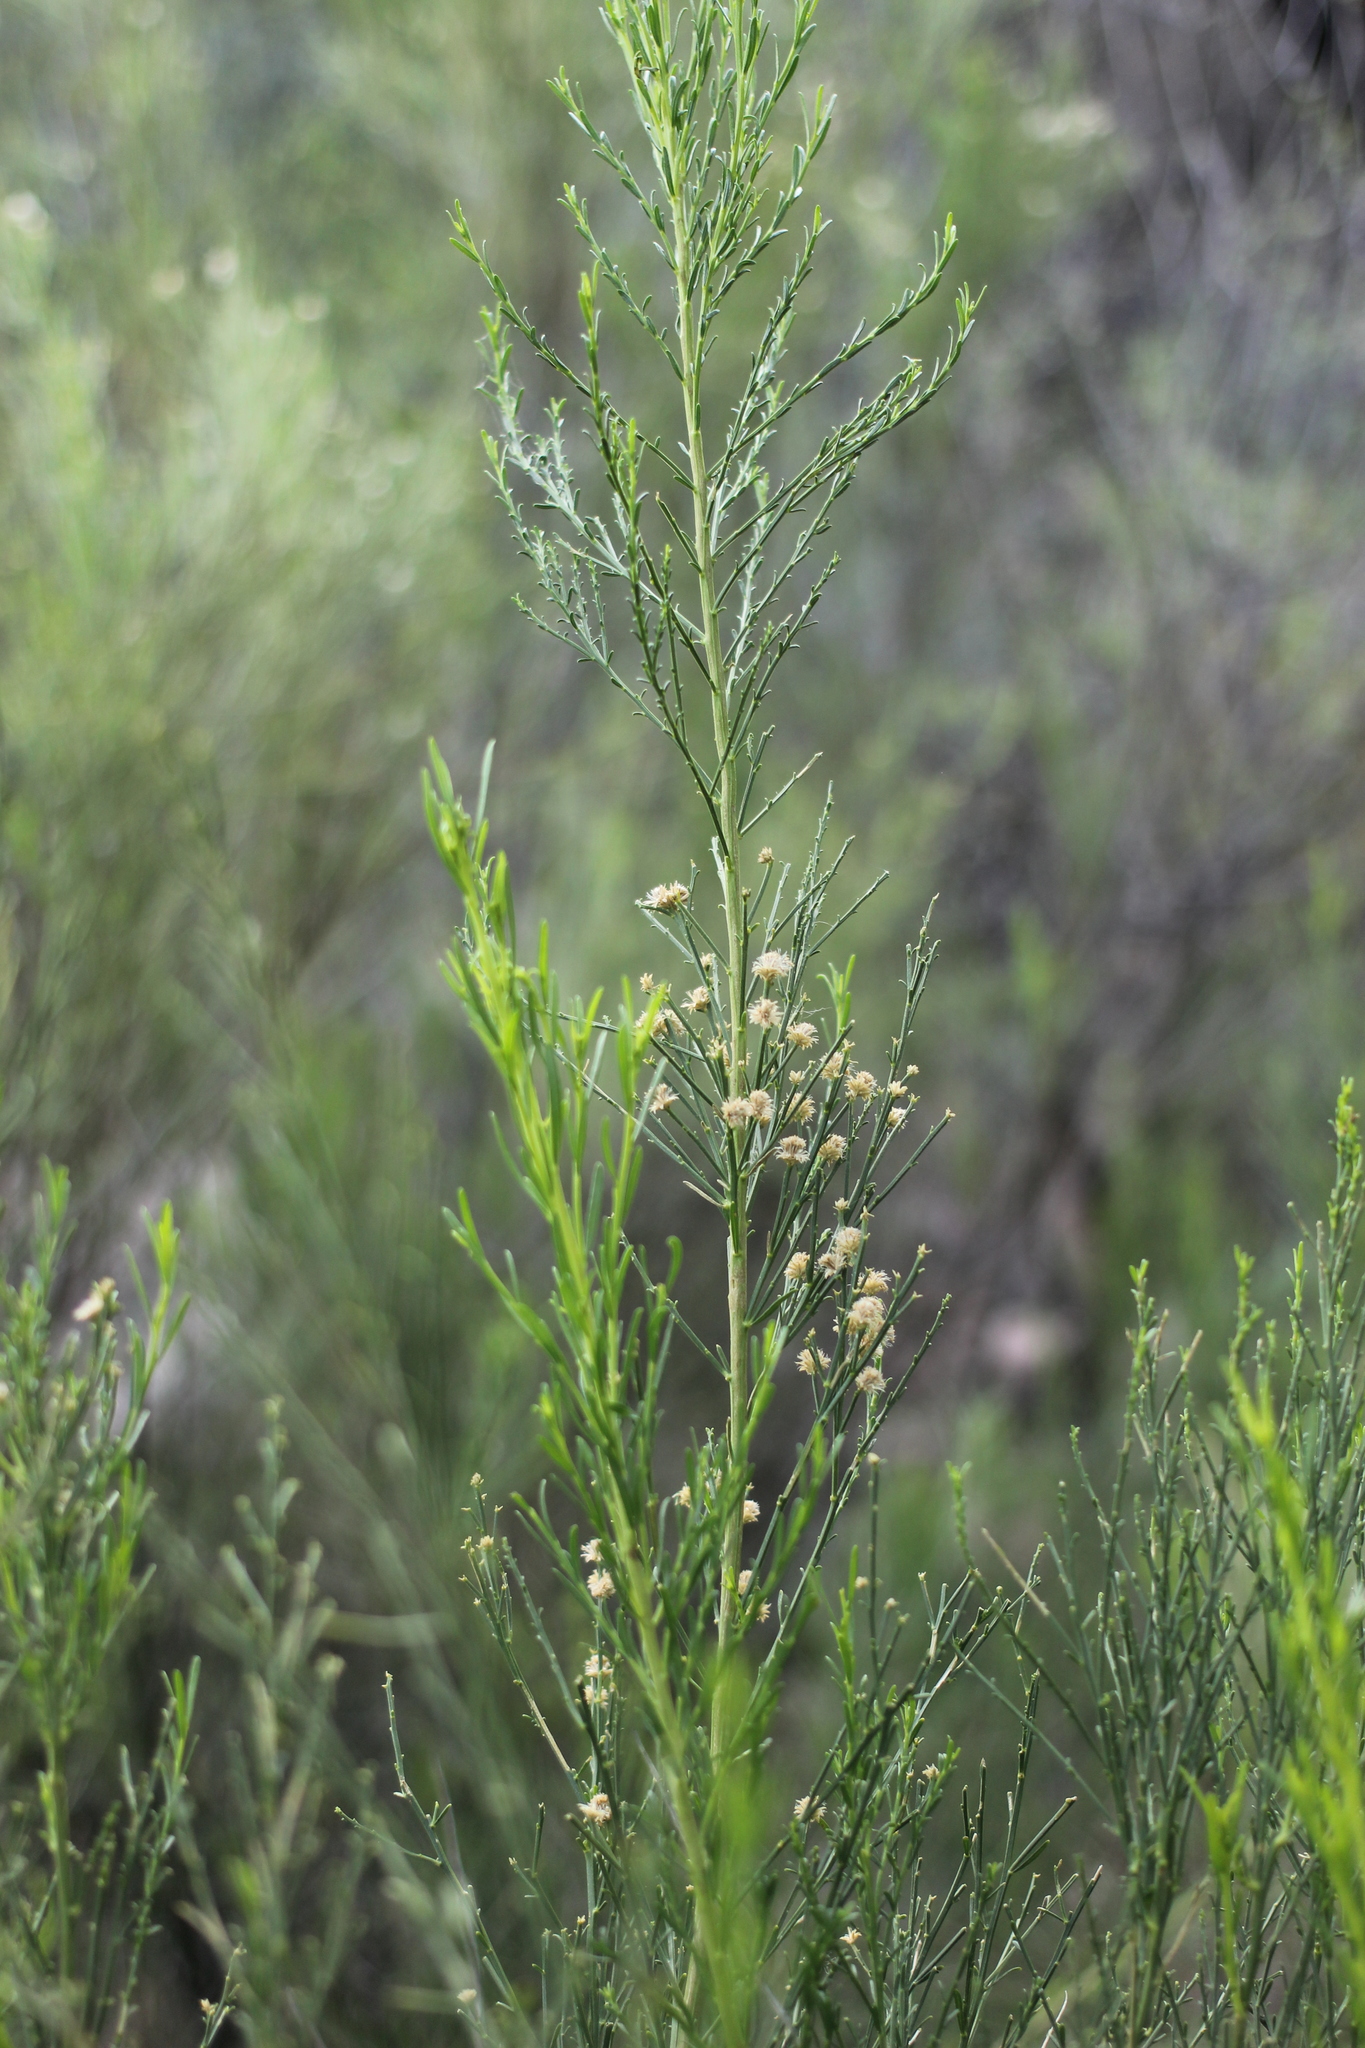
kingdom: Plantae
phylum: Tracheophyta
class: Magnoliopsida
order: Asterales
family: Asteraceae
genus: Baccharis
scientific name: Baccharis sarothroides
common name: Desert-broom
